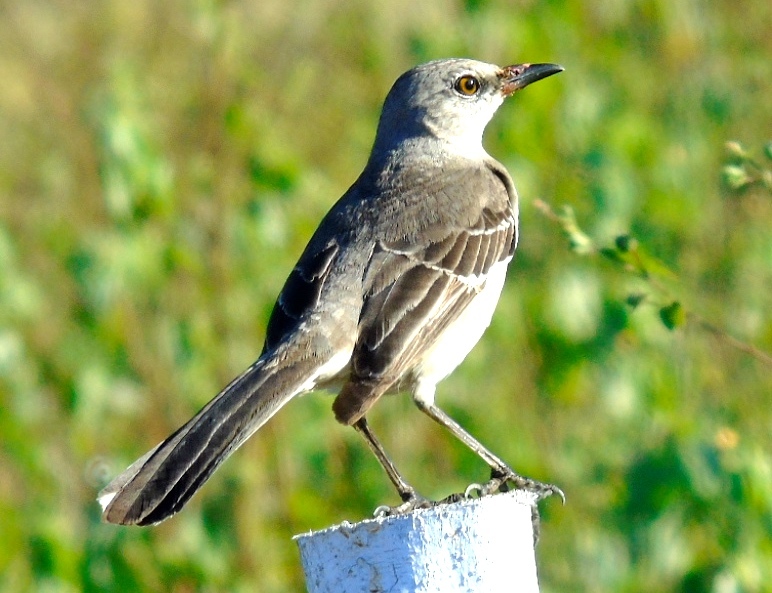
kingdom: Animalia
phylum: Chordata
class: Aves
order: Passeriformes
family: Mimidae
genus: Mimus
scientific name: Mimus polyglottos
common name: Northern mockingbird
